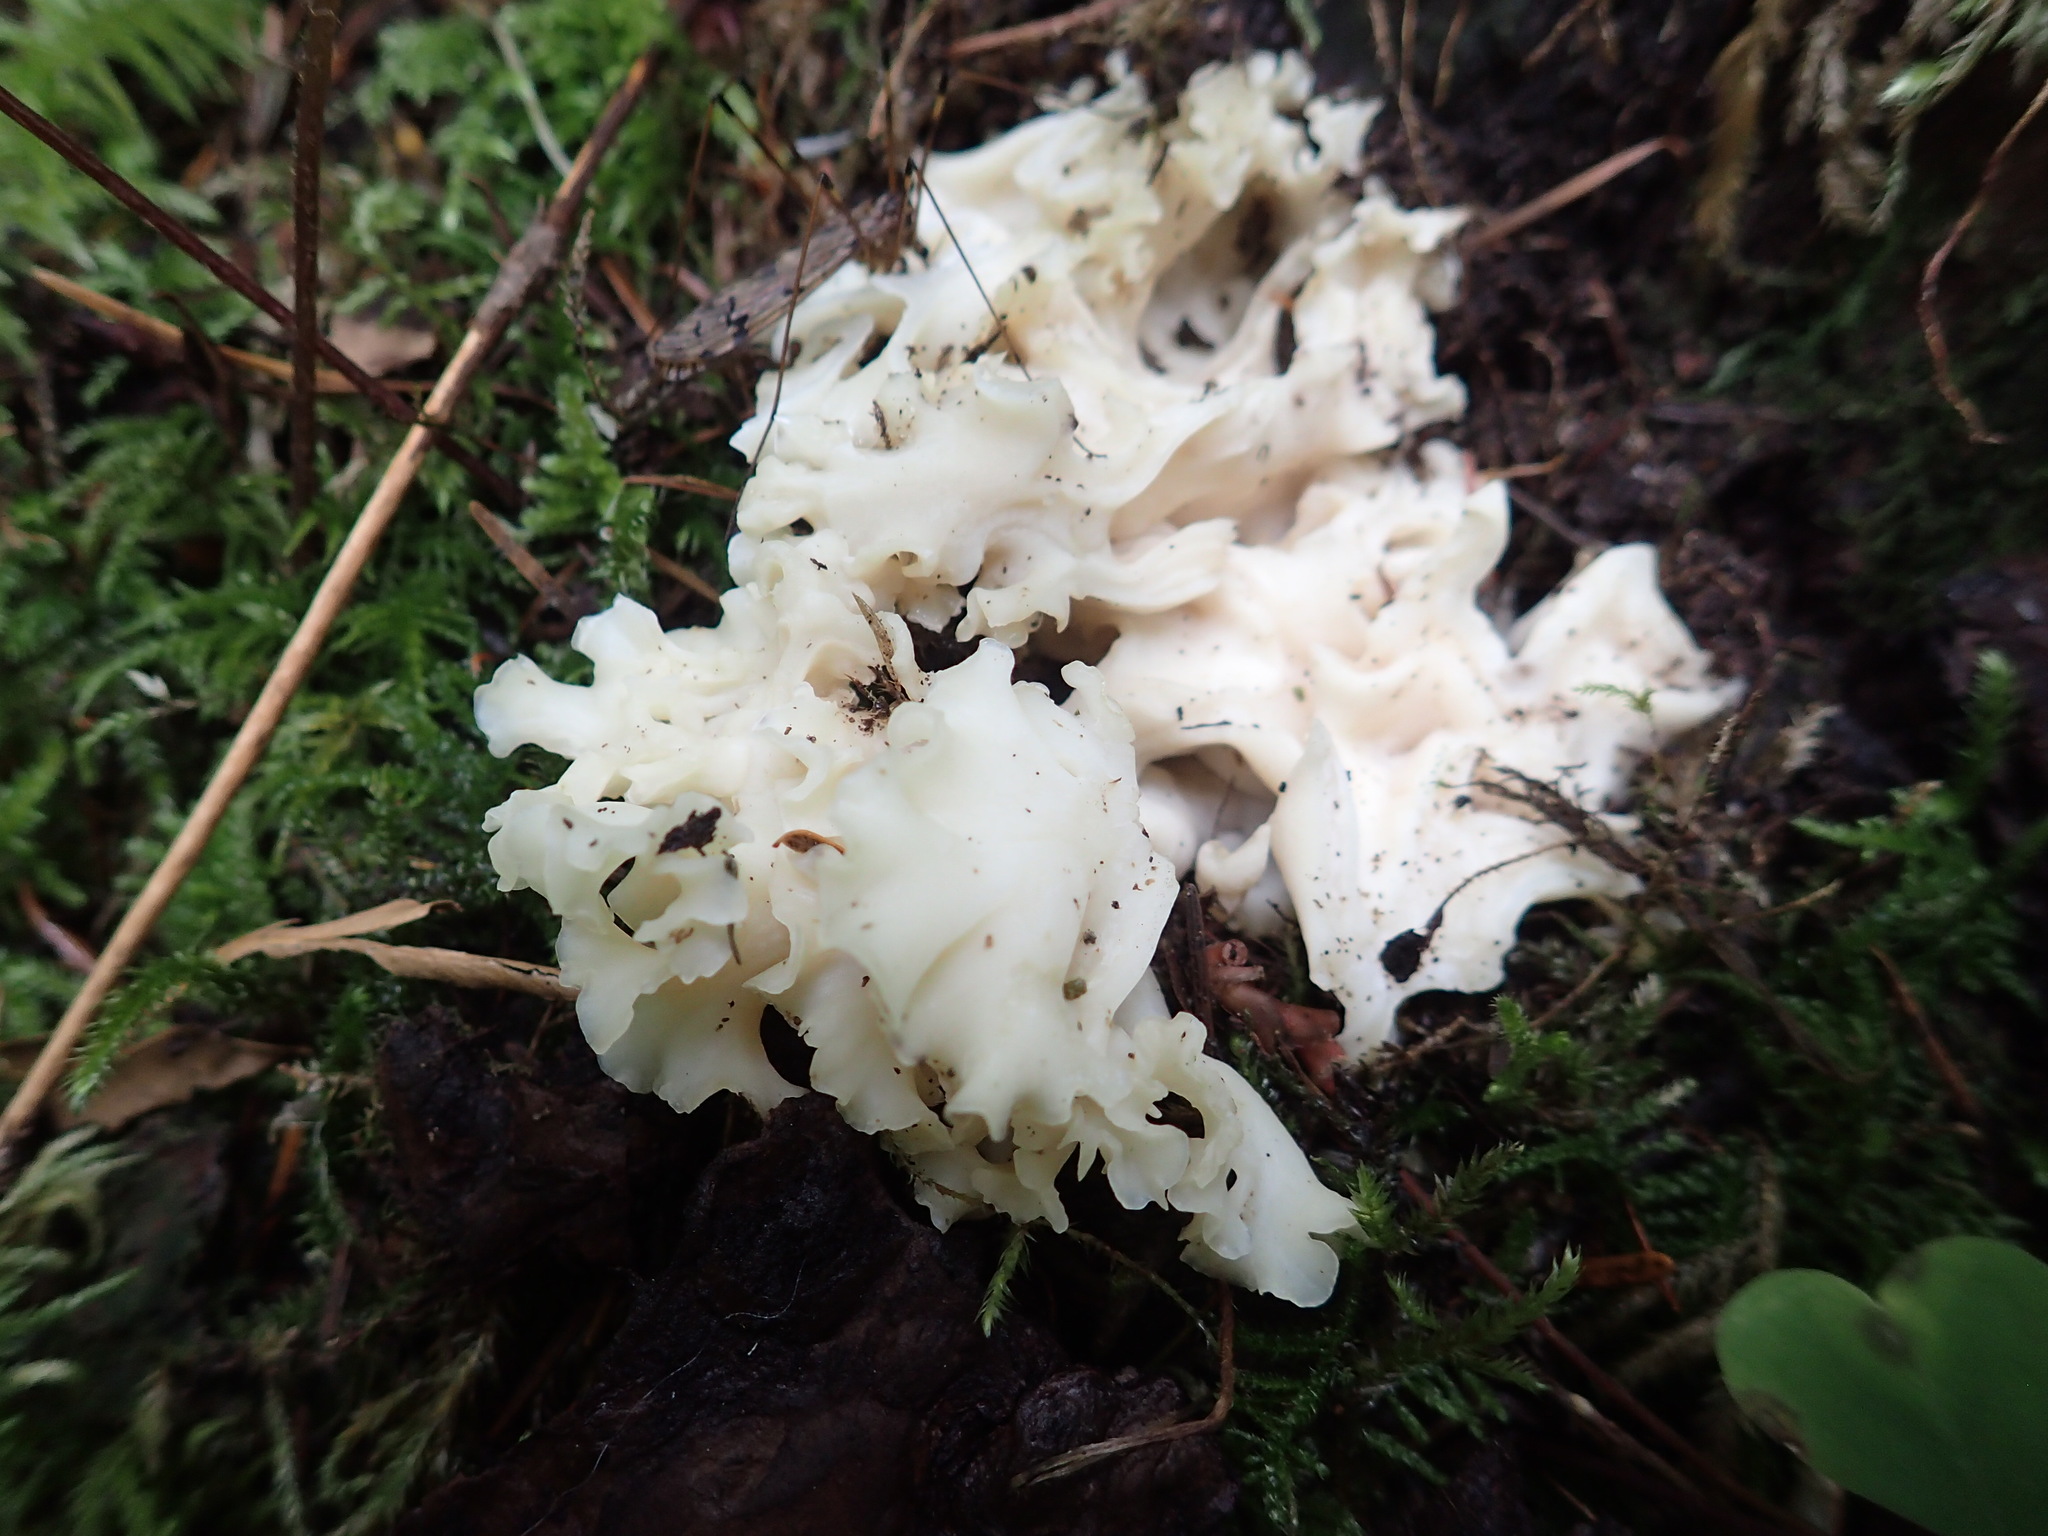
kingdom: Fungi
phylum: Basidiomycota
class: Agaricomycetes
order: Polyporales
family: Sparassidaceae
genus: Sparassis
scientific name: Sparassis radicata
